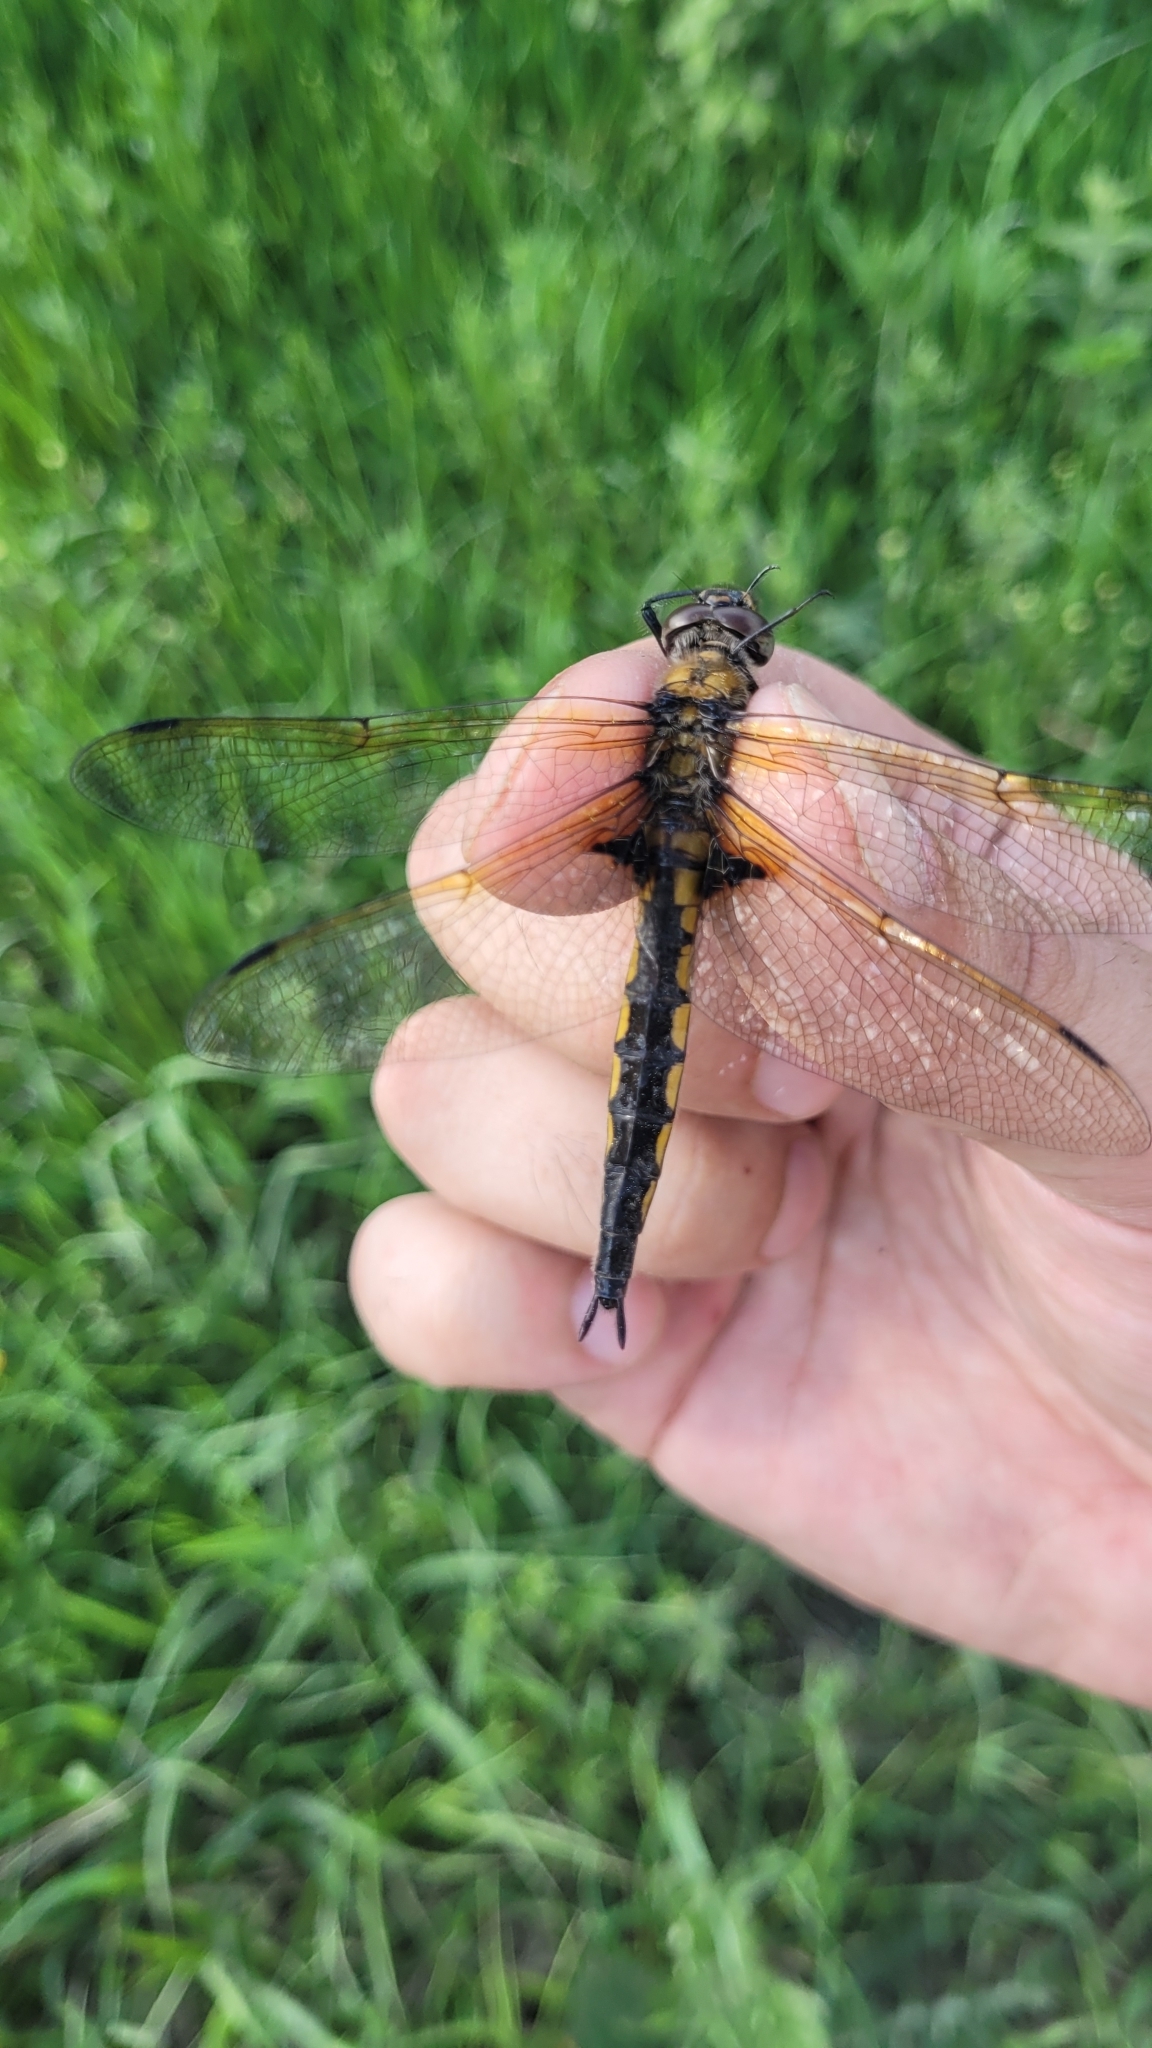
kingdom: Animalia
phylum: Arthropoda
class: Insecta
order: Odonata
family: Corduliidae
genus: Epitheca
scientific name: Epitheca bimaculata
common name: Eurasian baskettail
